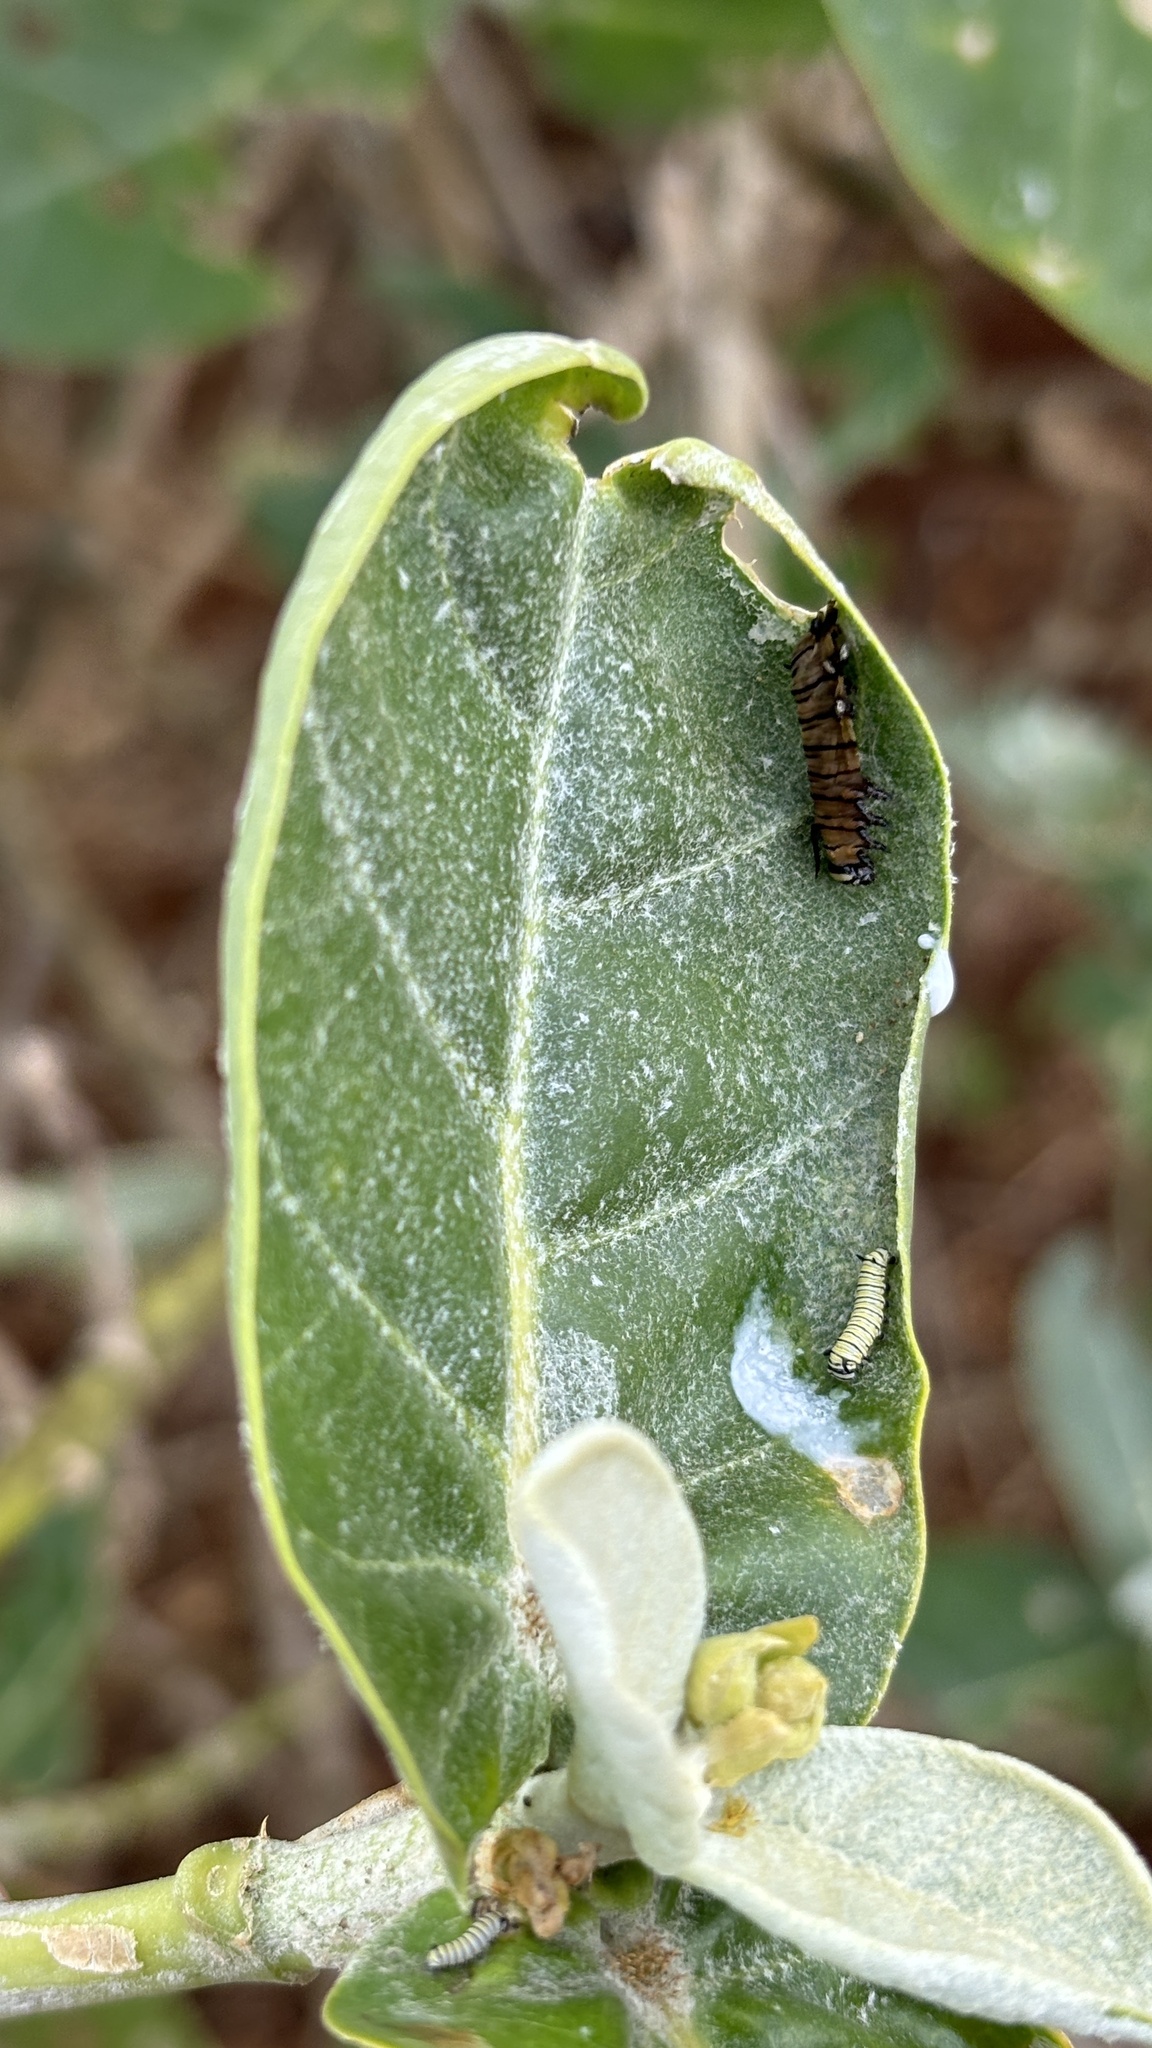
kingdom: Animalia
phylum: Arthropoda
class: Insecta
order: Lepidoptera
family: Nymphalidae
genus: Danaus
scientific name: Danaus plexippus
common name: Monarch
